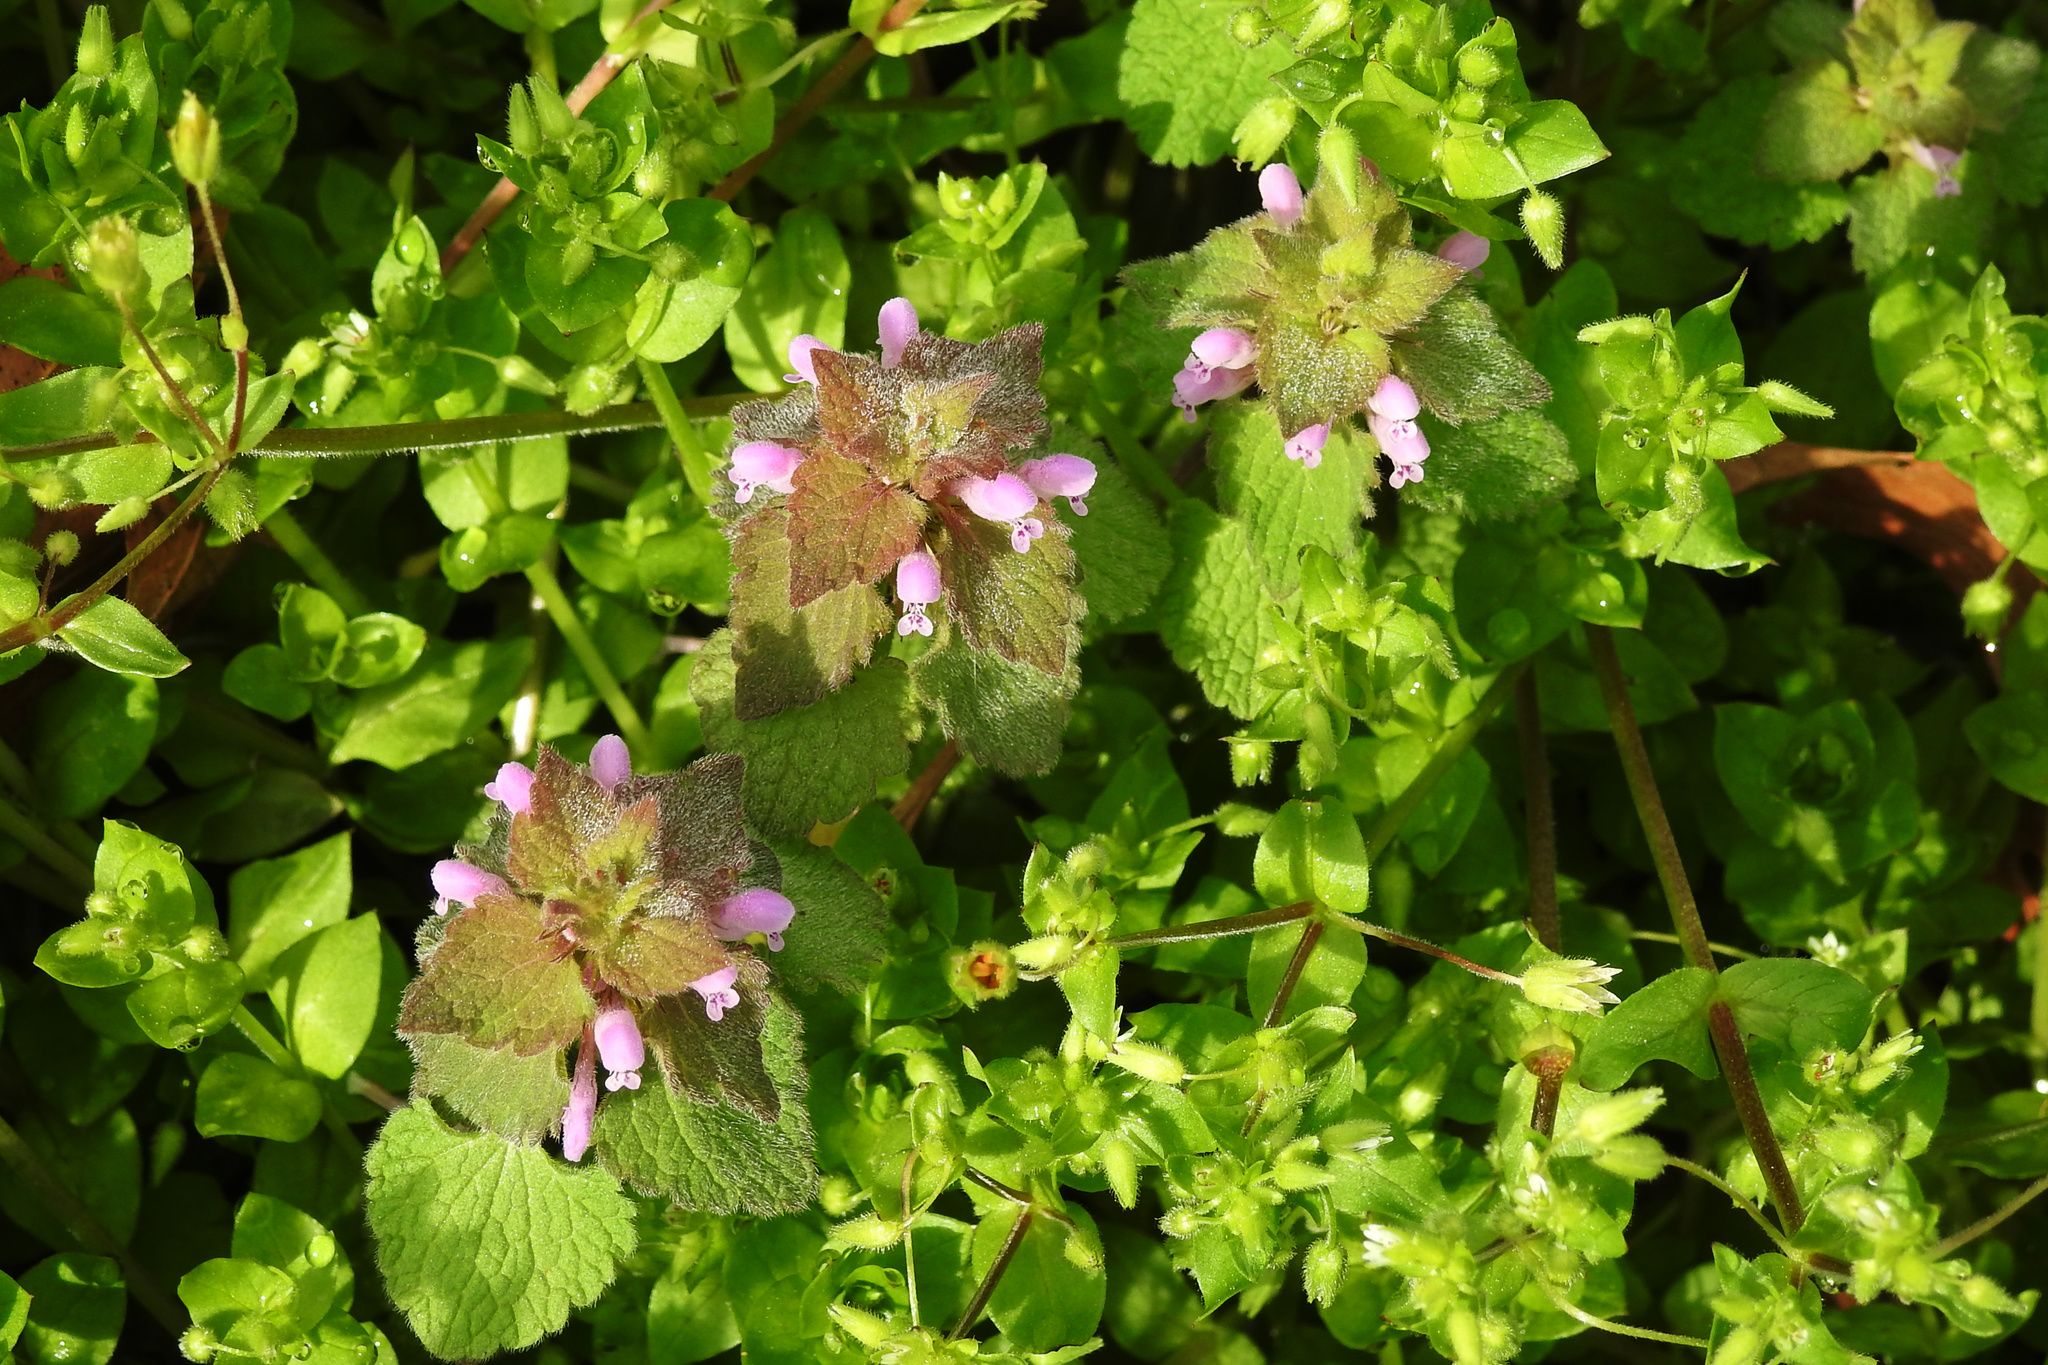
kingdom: Plantae
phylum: Tracheophyta
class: Magnoliopsida
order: Lamiales
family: Lamiaceae
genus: Lamium
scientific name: Lamium purpureum
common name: Red dead-nettle
